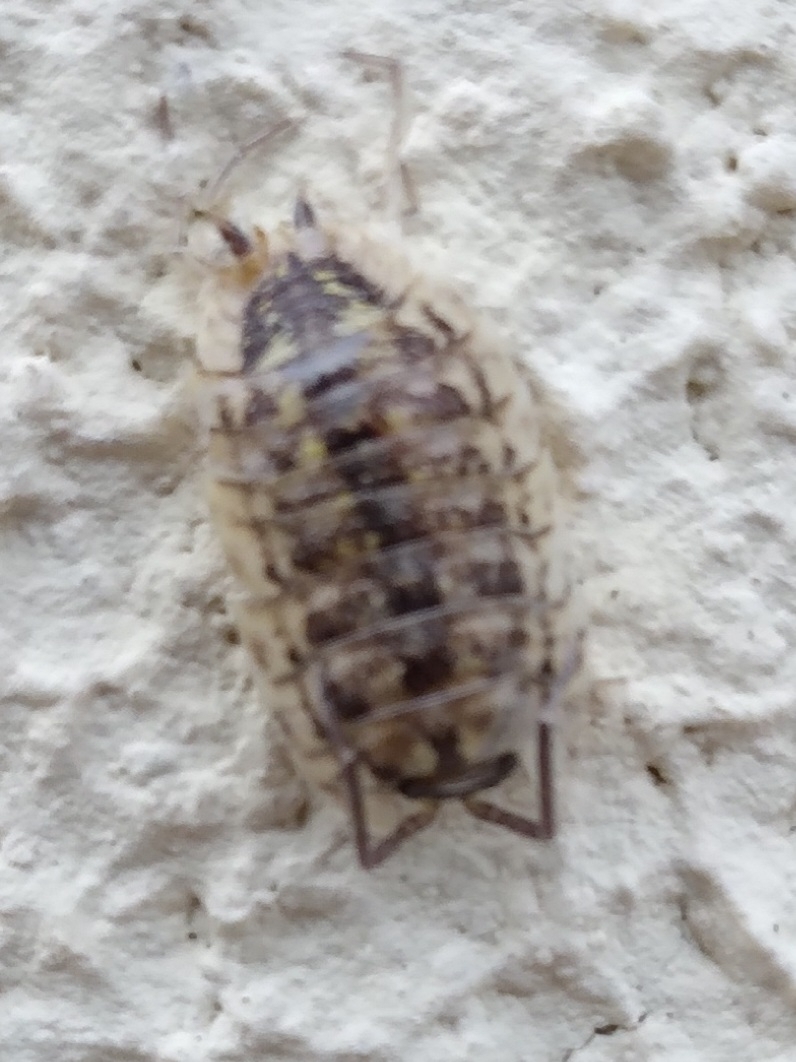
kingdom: Animalia
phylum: Arthropoda
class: Malacostraca
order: Isopoda
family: Porcellionidae
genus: Porcellio
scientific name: Porcellio spinicornis
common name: Painted woodlouse
